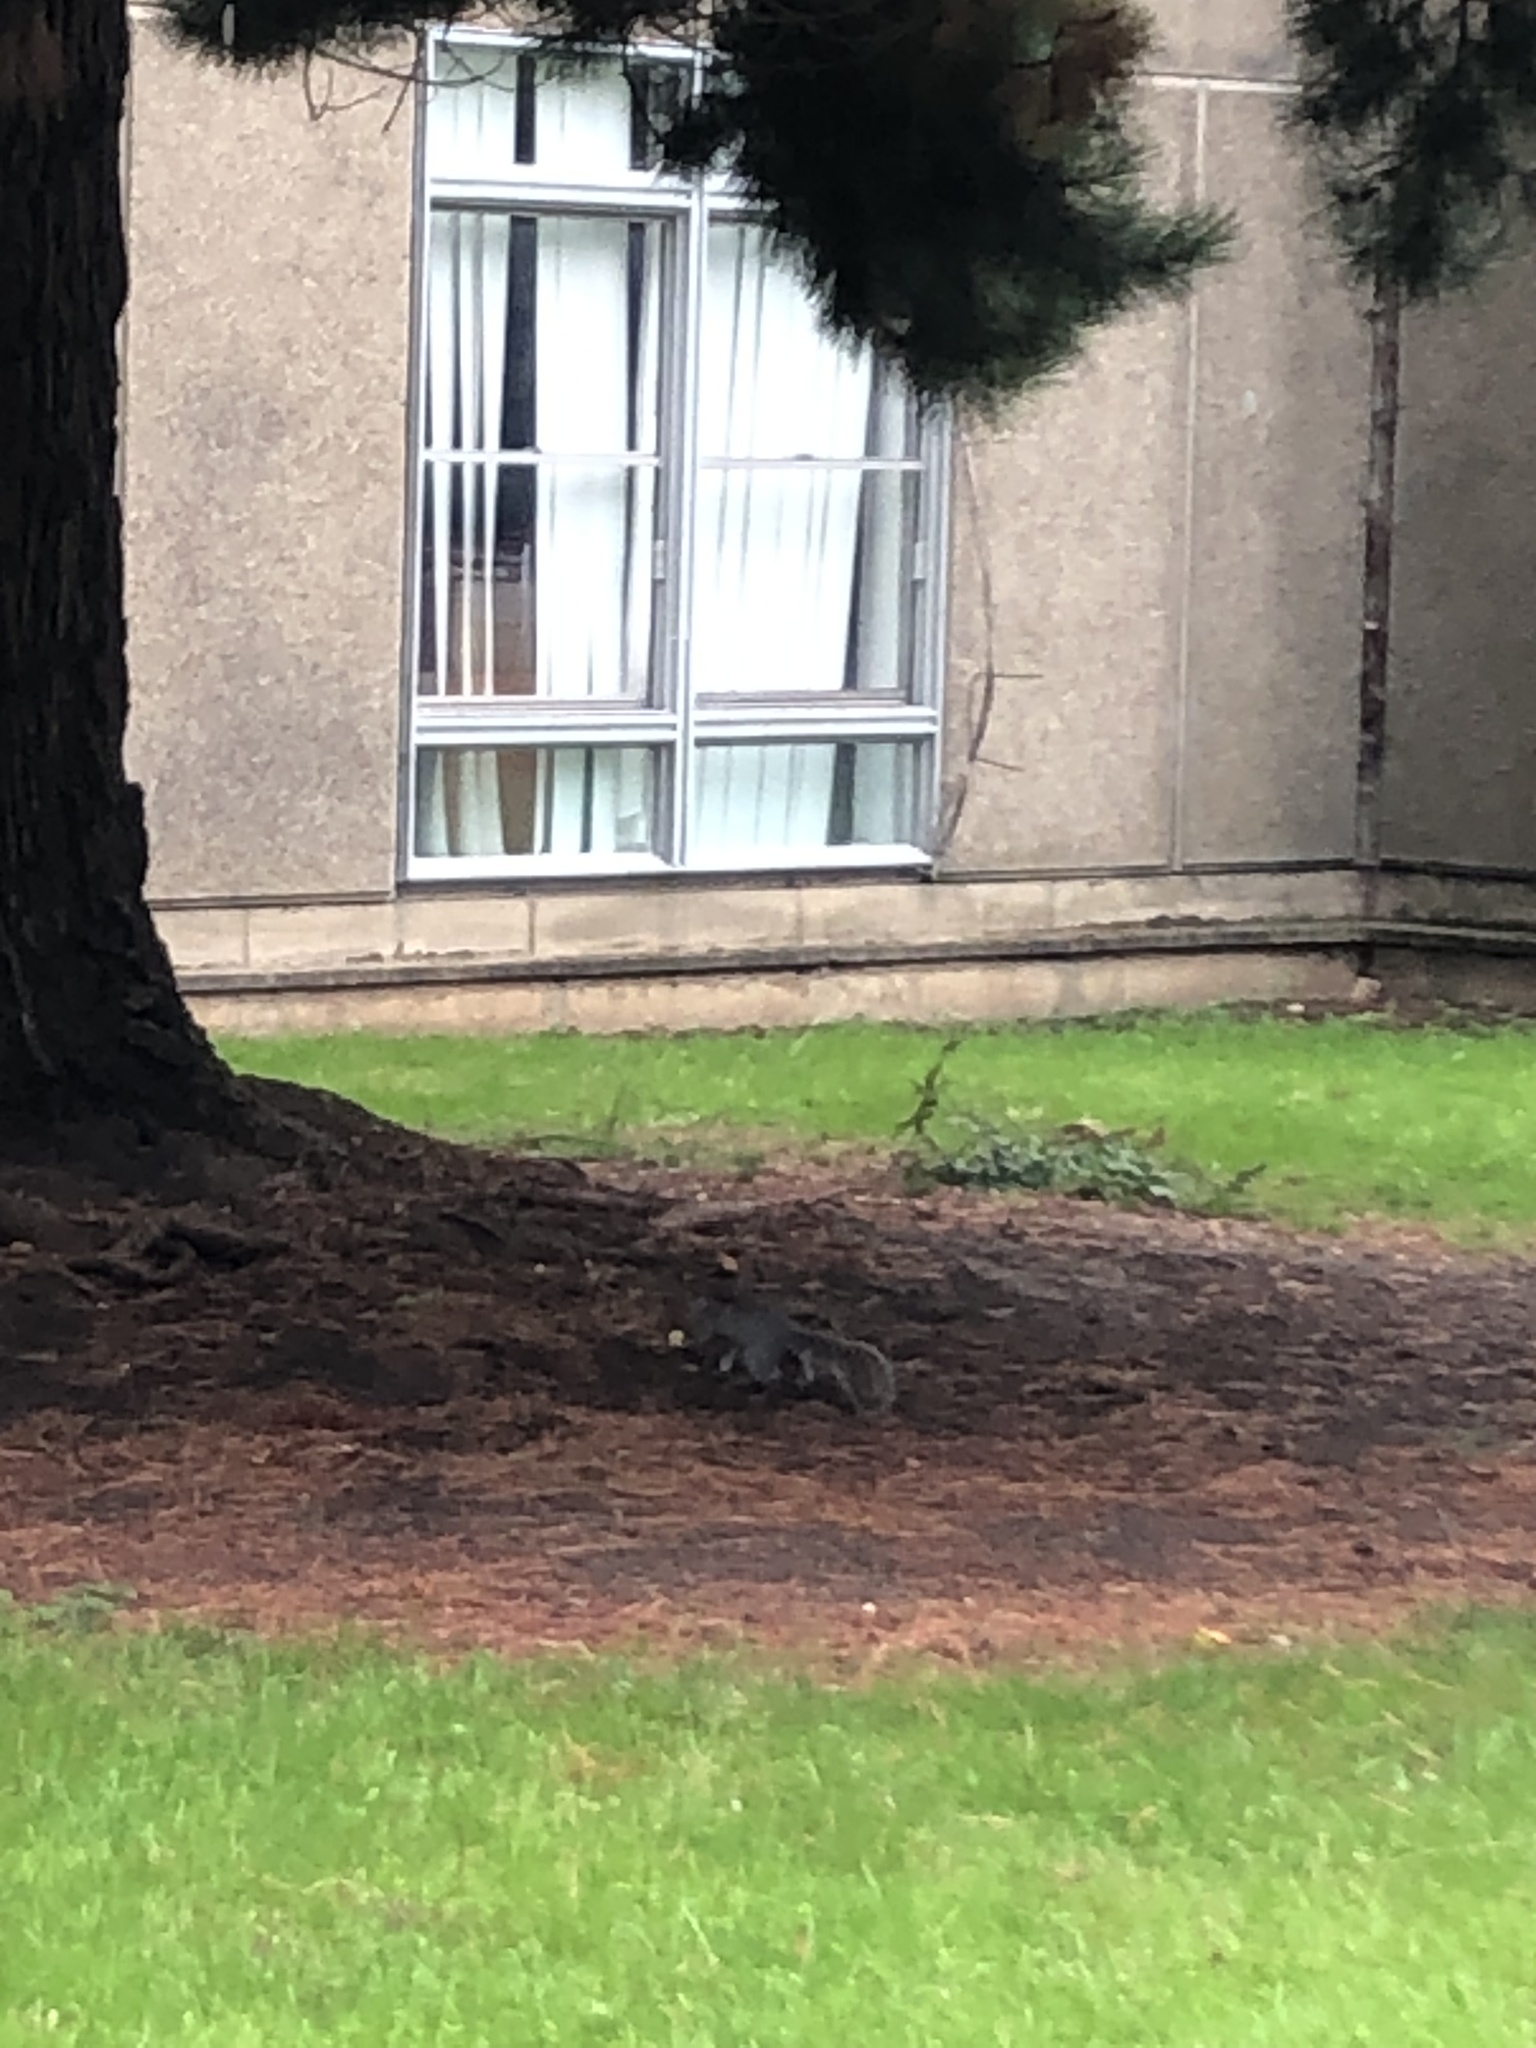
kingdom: Animalia
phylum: Chordata
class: Mammalia
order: Rodentia
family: Sciuridae
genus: Sciurus
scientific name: Sciurus carolinensis
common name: Eastern gray squirrel
